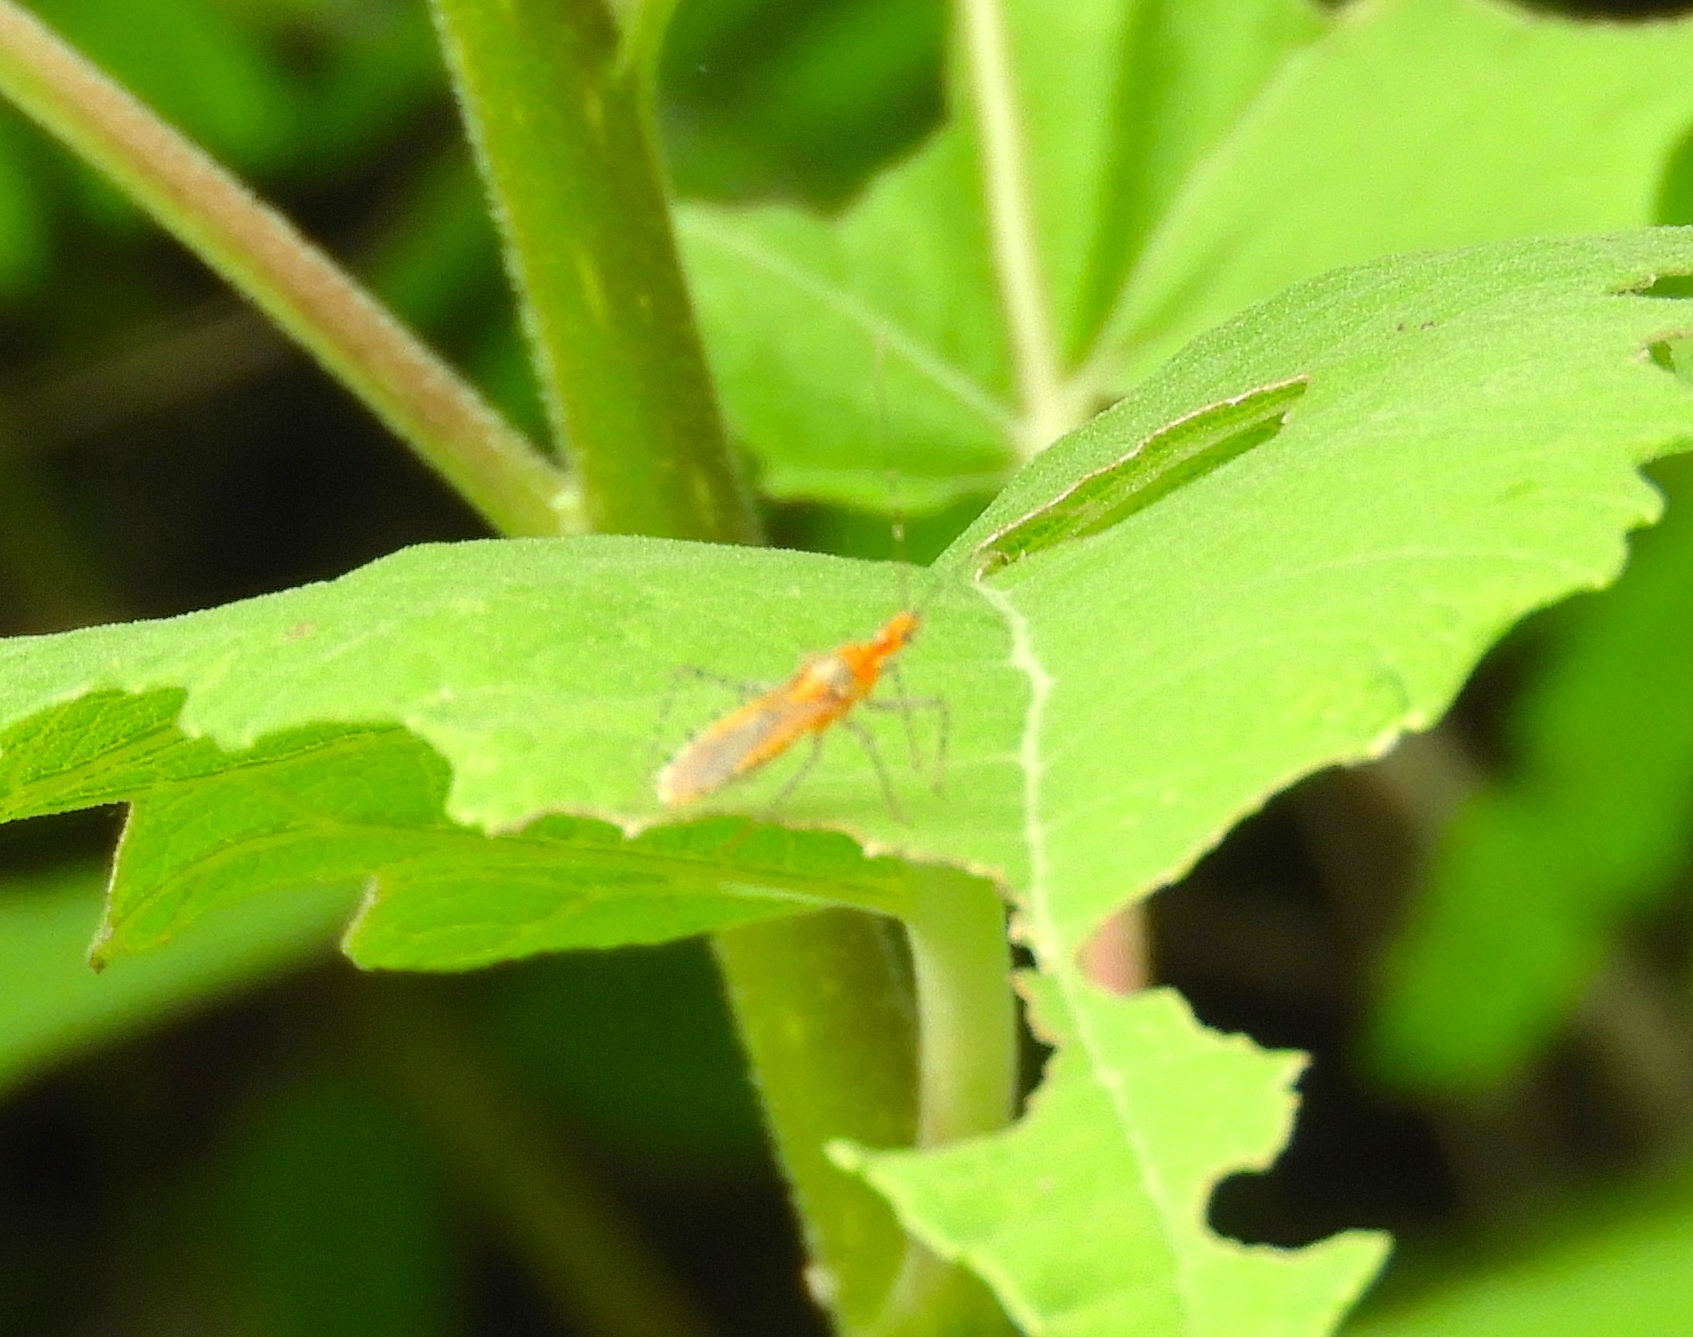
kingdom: Animalia
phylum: Arthropoda
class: Insecta
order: Hemiptera
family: Reduviidae
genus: Pselliopus
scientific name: Pselliopus
